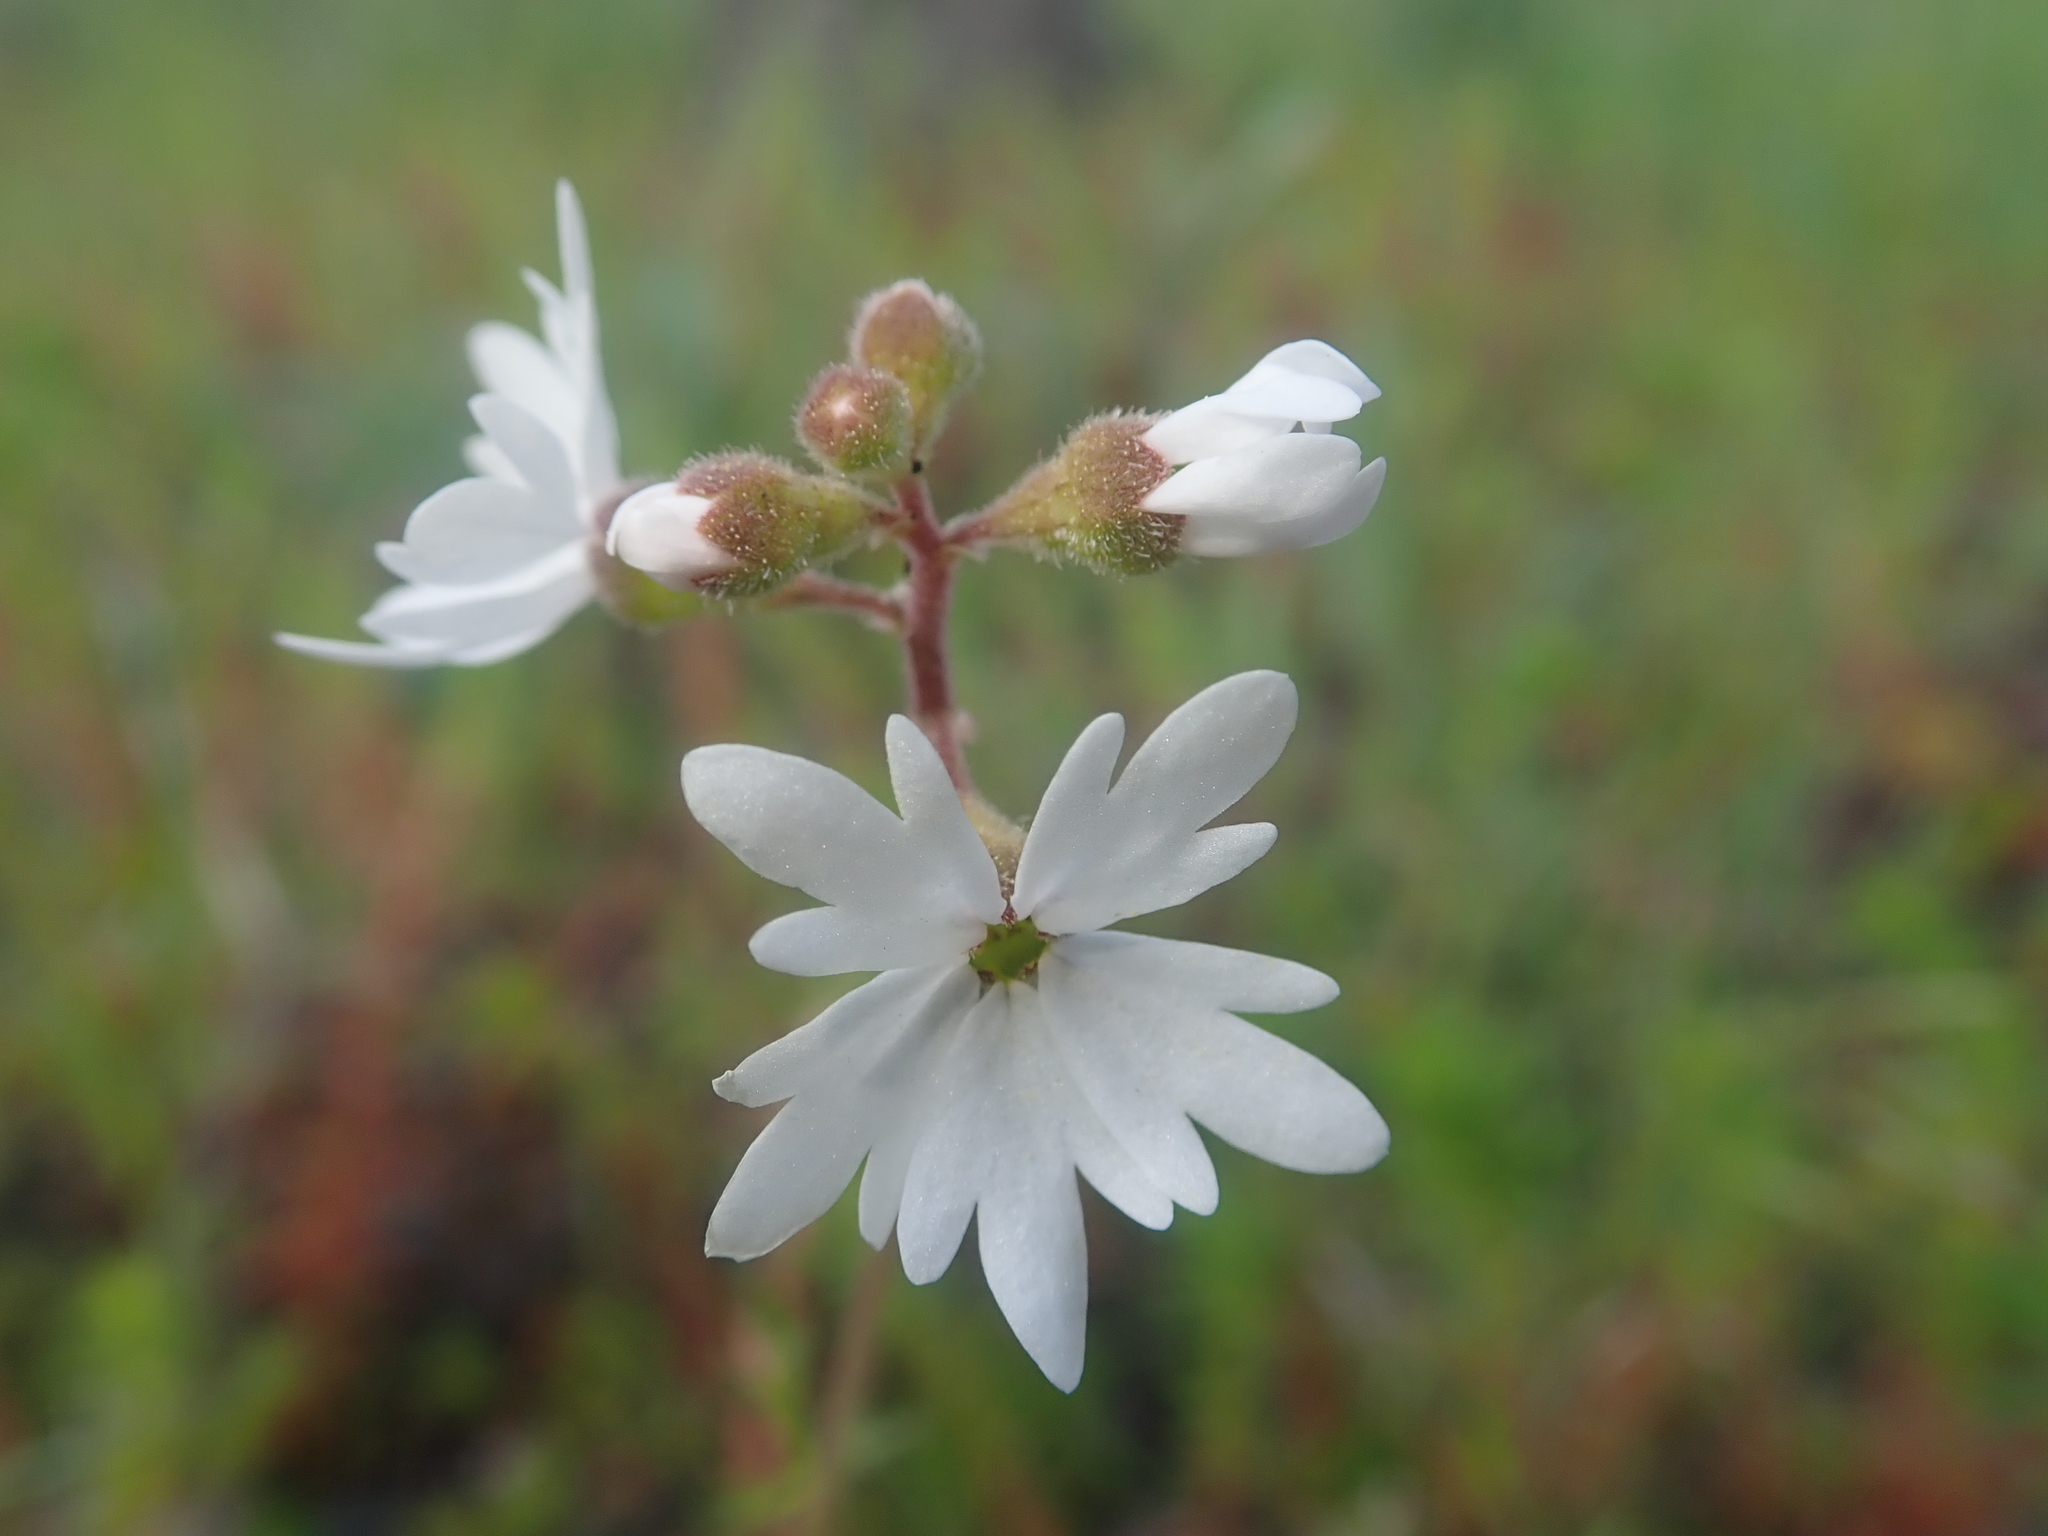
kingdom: Plantae
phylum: Tracheophyta
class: Magnoliopsida
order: Saxifragales
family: Saxifragaceae
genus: Lithophragma
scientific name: Lithophragma parviflorum
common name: Small-flowered fringe-cup
